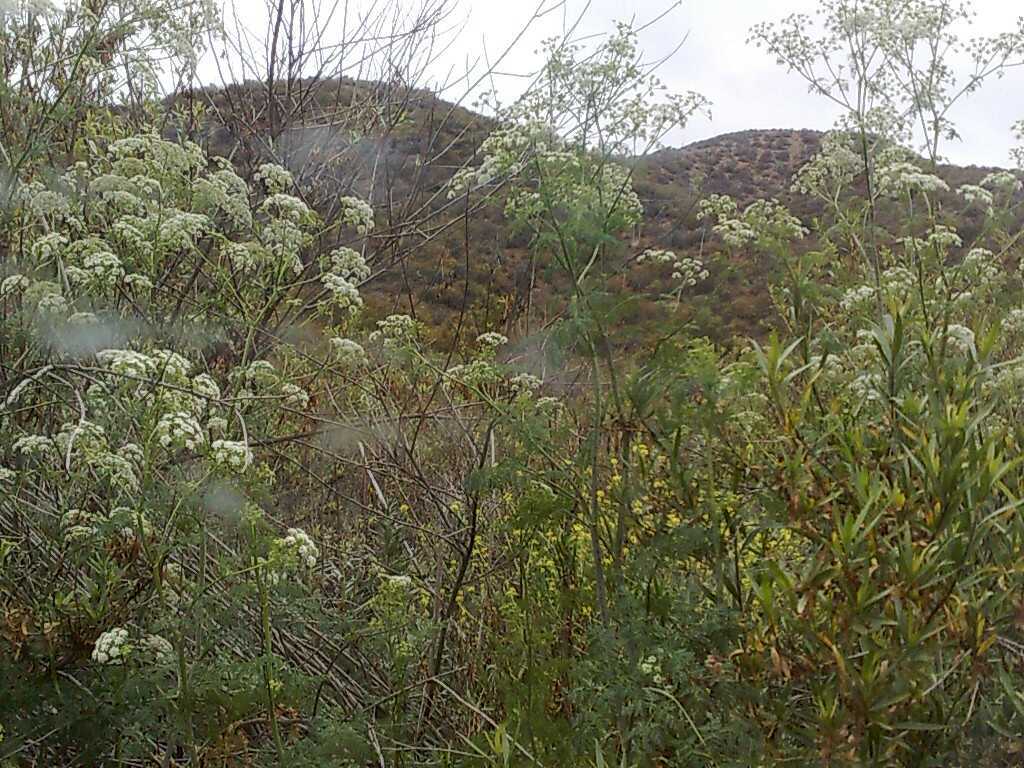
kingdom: Plantae
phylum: Tracheophyta
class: Magnoliopsida
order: Asterales
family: Asteraceae
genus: Baccharis
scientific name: Baccharis salicifolia
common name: Sticky baccharis
